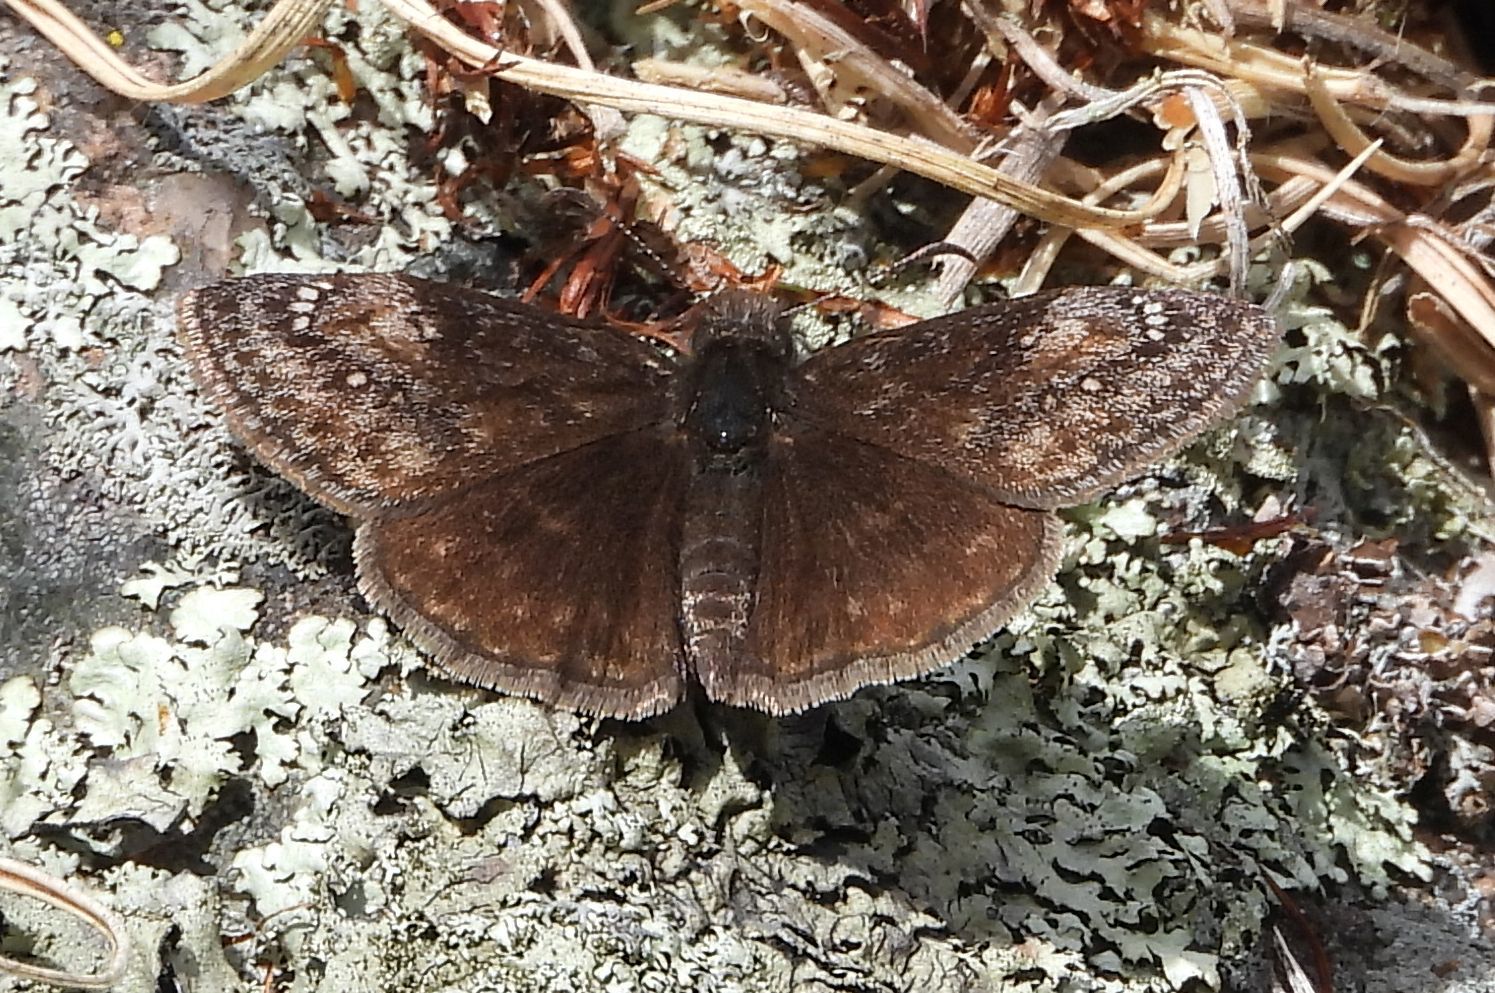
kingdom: Animalia
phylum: Arthropoda
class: Insecta
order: Lepidoptera
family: Hesperiidae
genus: Erynnis
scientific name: Erynnis lucilius
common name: Columbine duskywing
